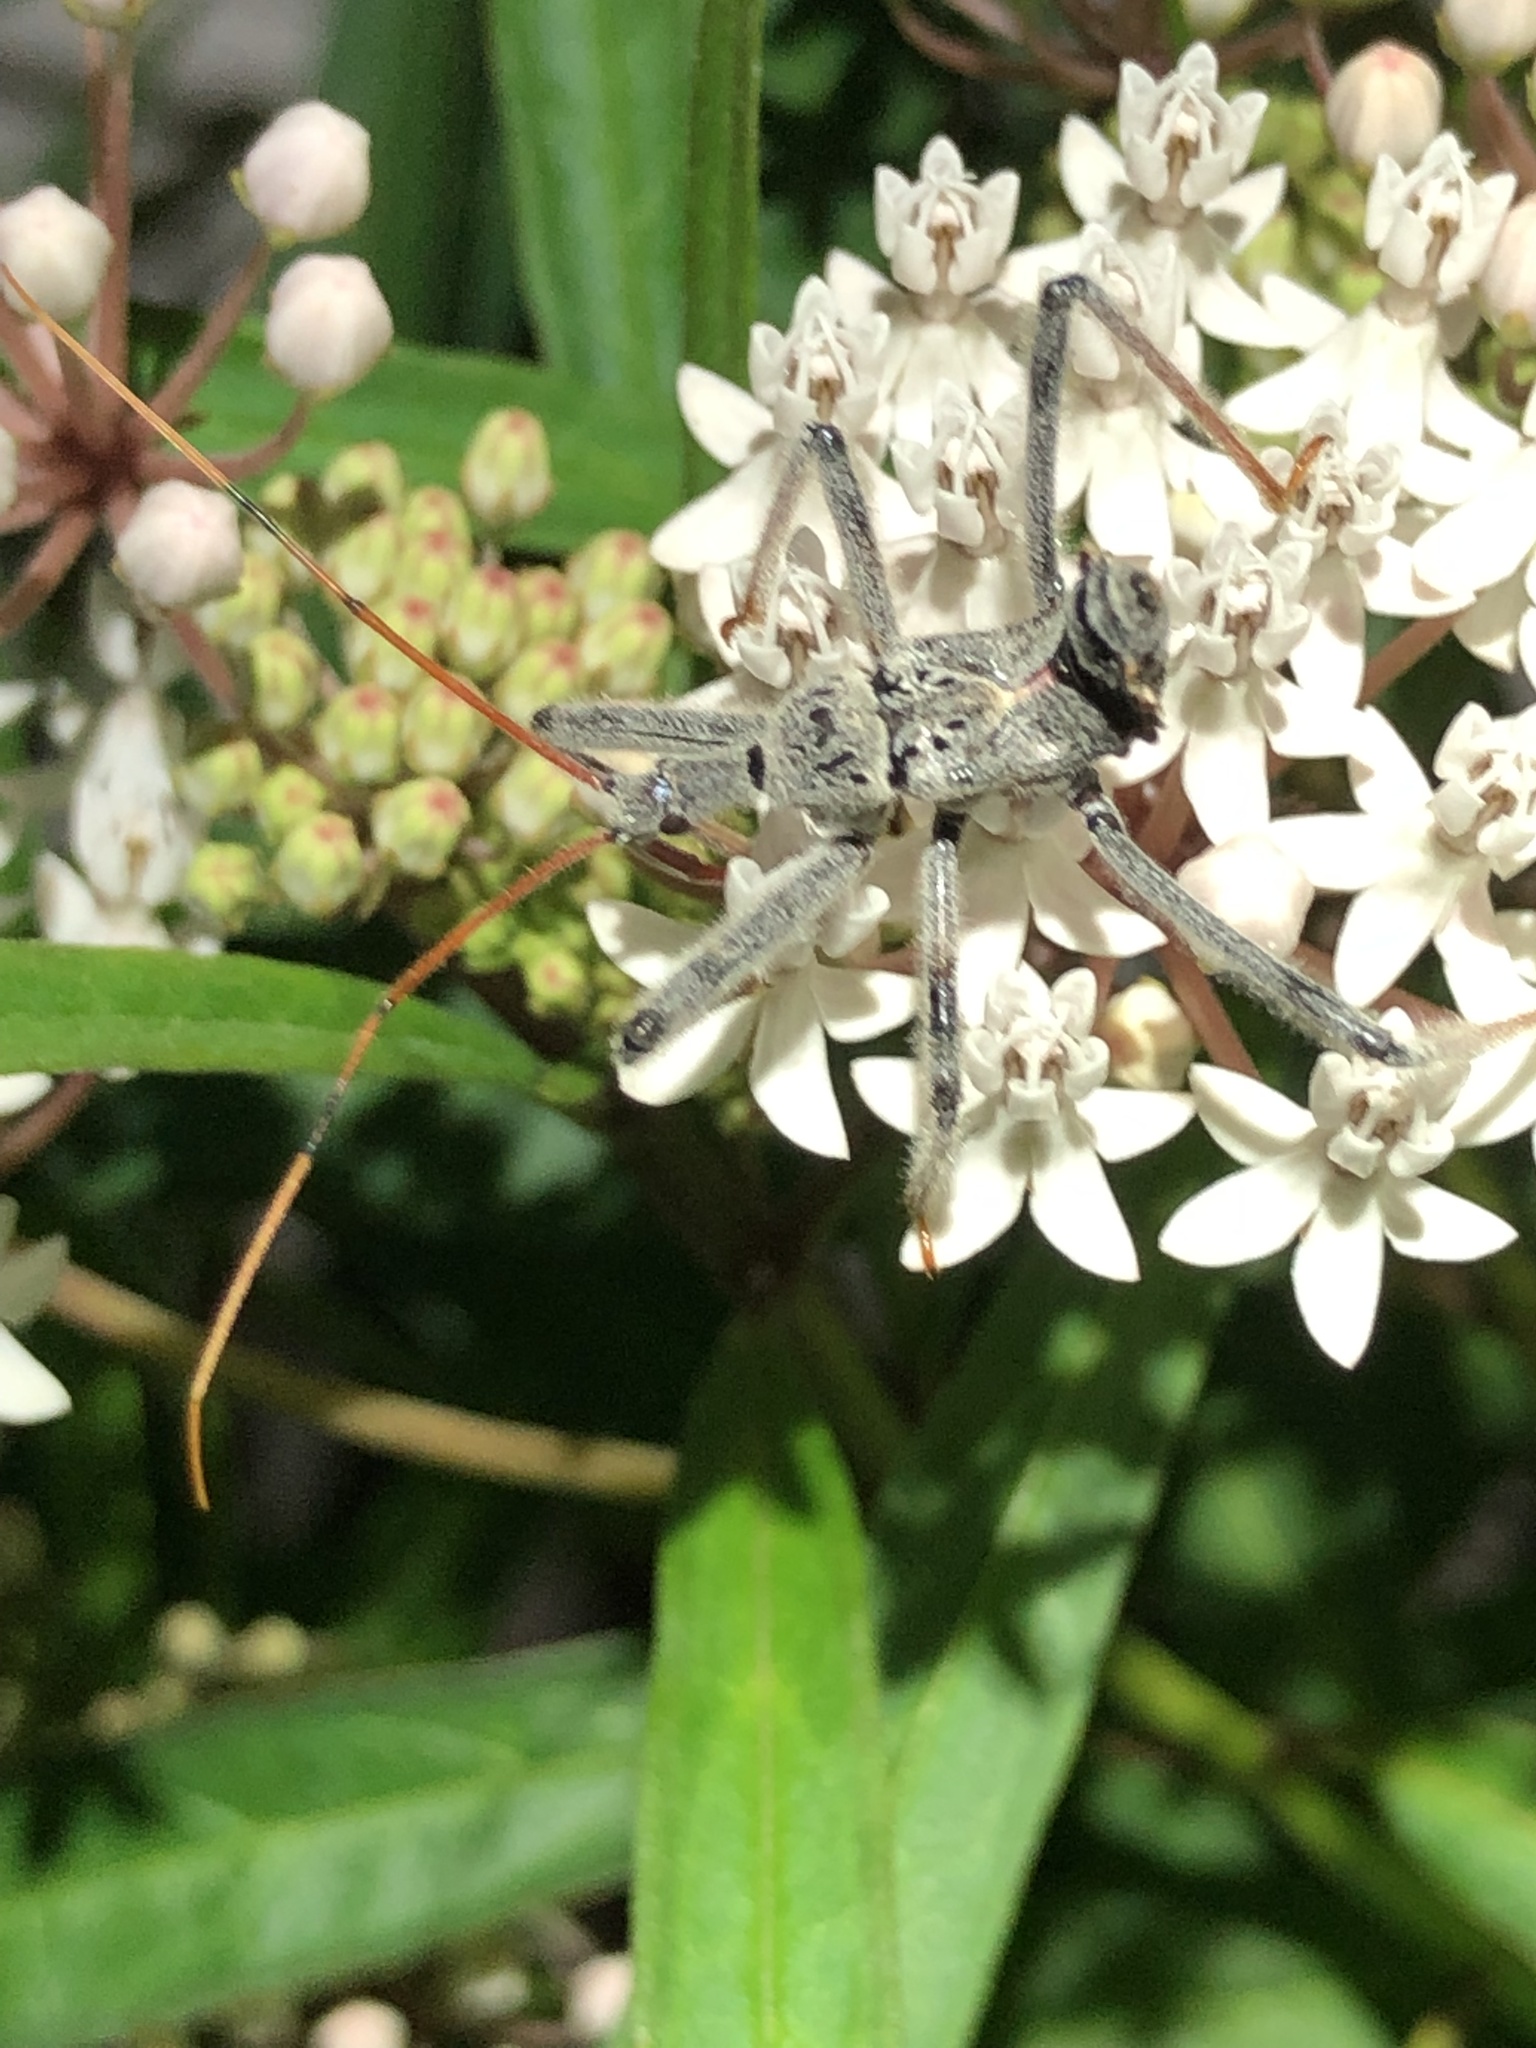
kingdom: Animalia
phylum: Arthropoda
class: Insecta
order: Hemiptera
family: Reduviidae
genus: Arilus
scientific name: Arilus cristatus
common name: North american wheel bug
